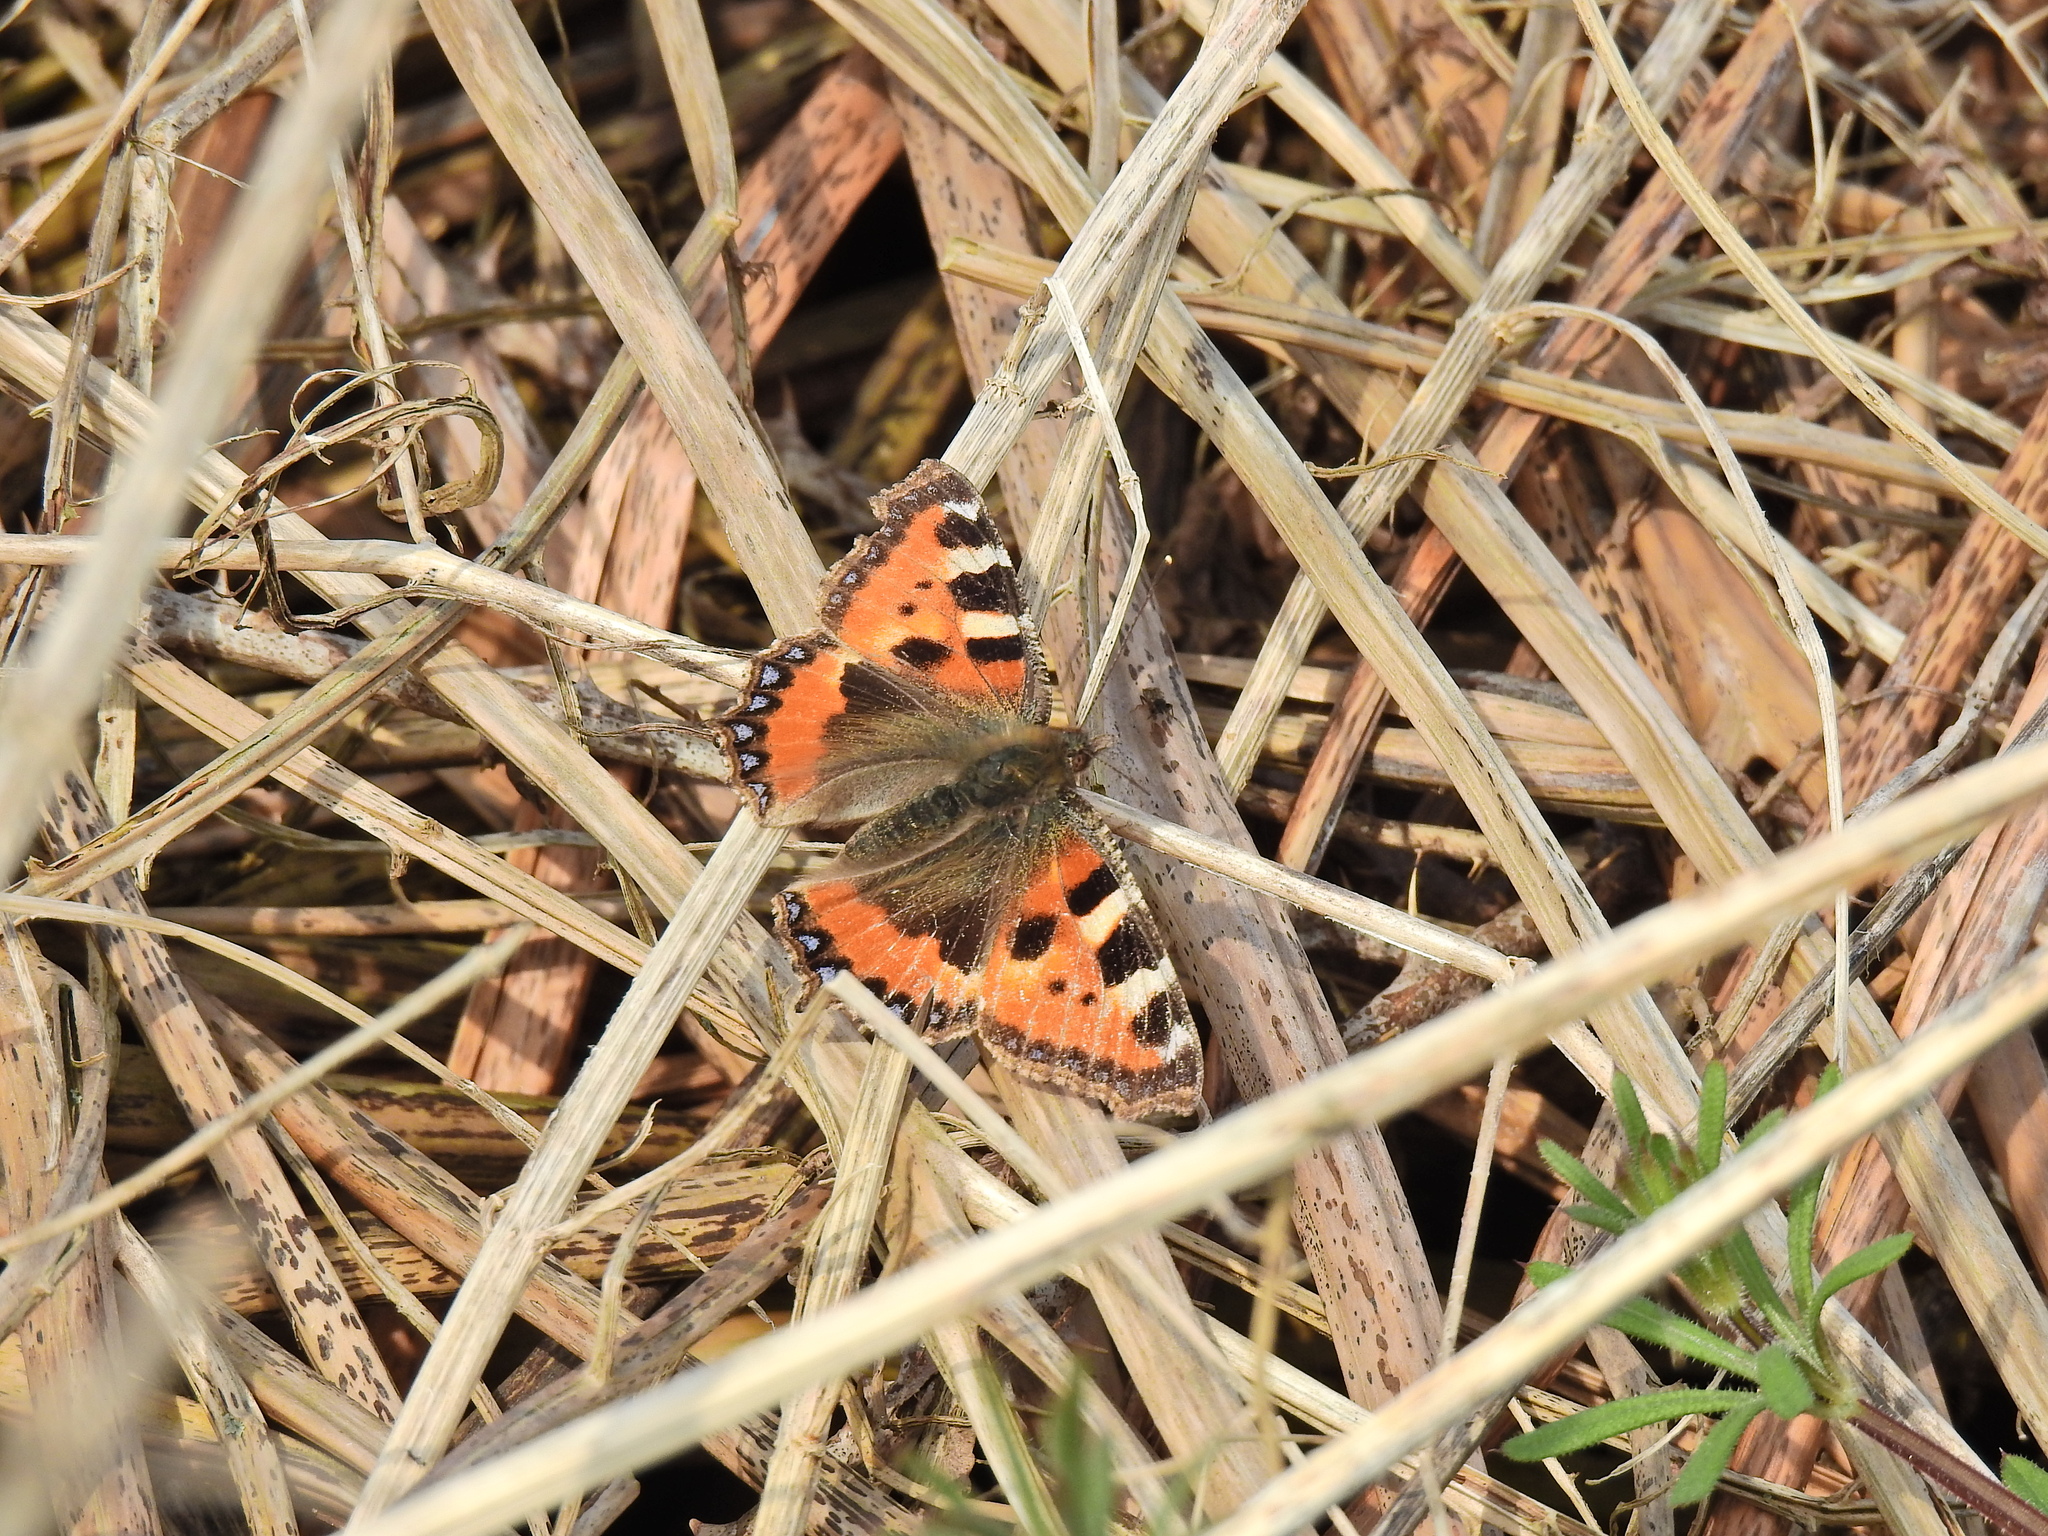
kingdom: Animalia
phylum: Arthropoda
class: Insecta
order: Lepidoptera
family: Nymphalidae
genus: Aglais
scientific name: Aglais urticae
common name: Small tortoiseshell
